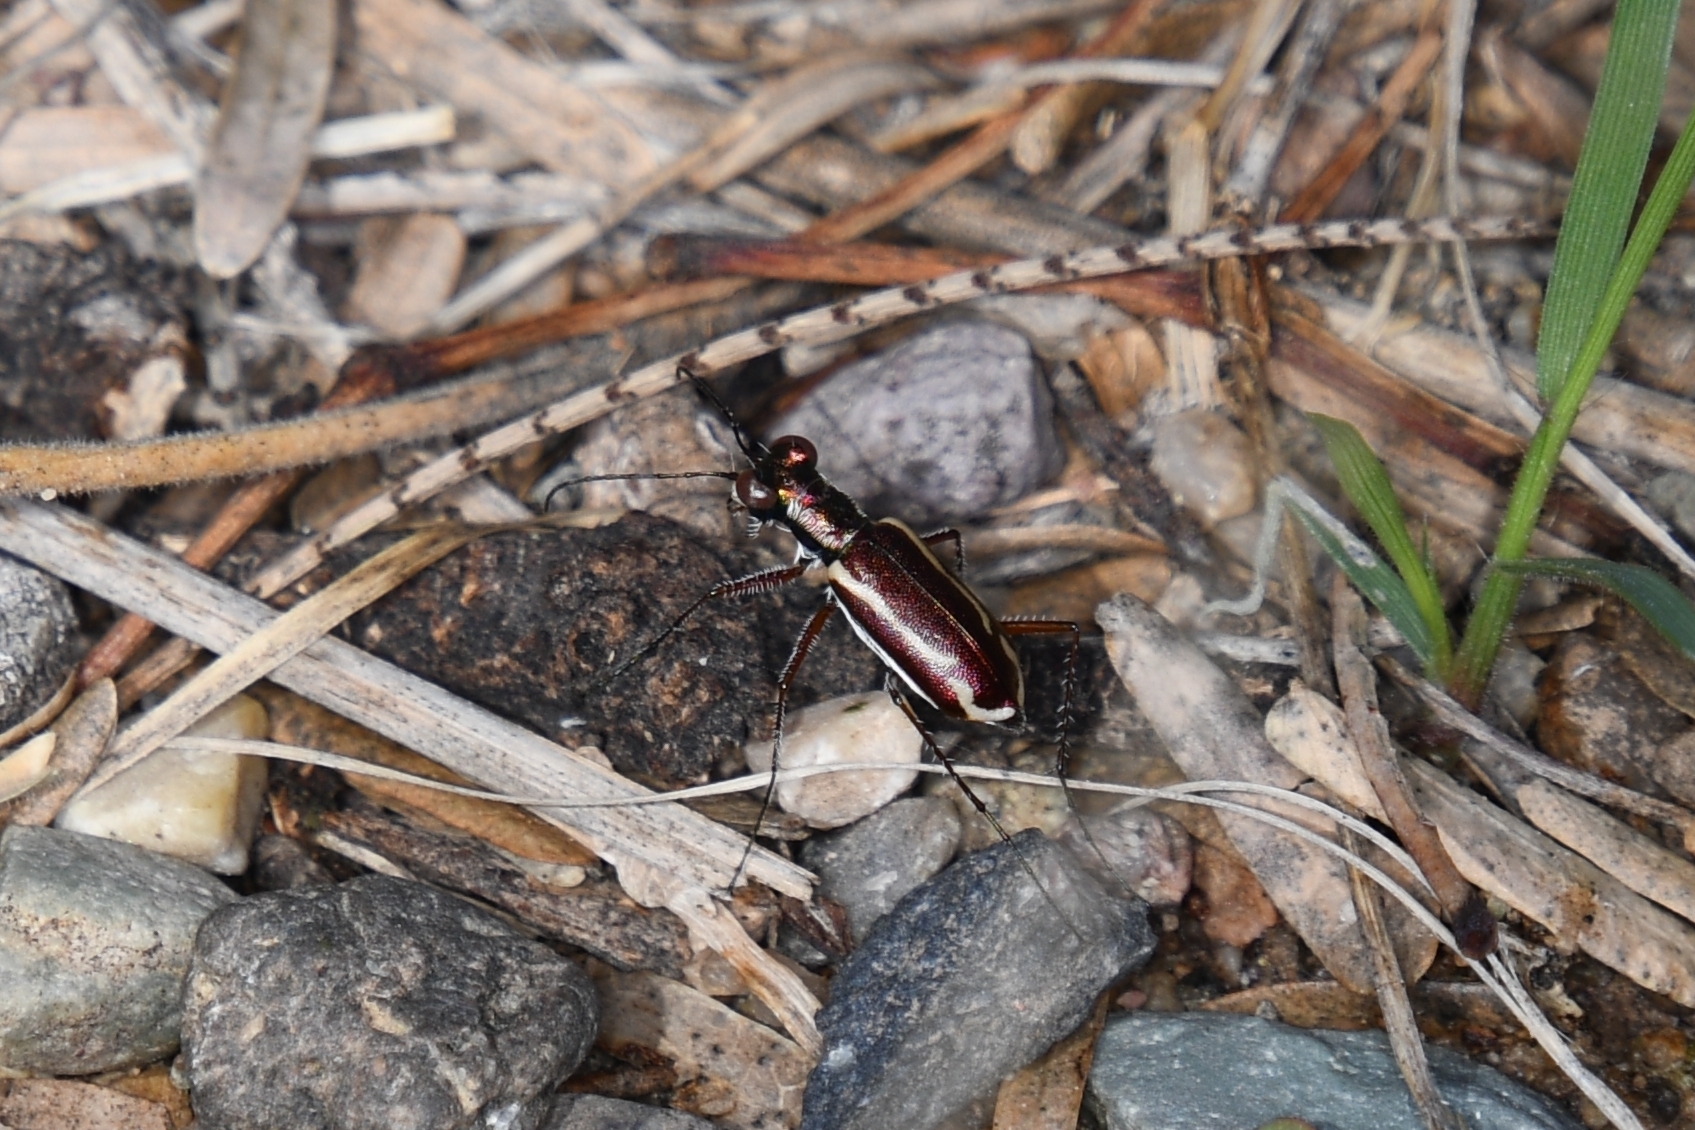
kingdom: Animalia
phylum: Arthropoda
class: Insecta
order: Coleoptera
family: Carabidae
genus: Cylindera
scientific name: Cylindera lemniscata
